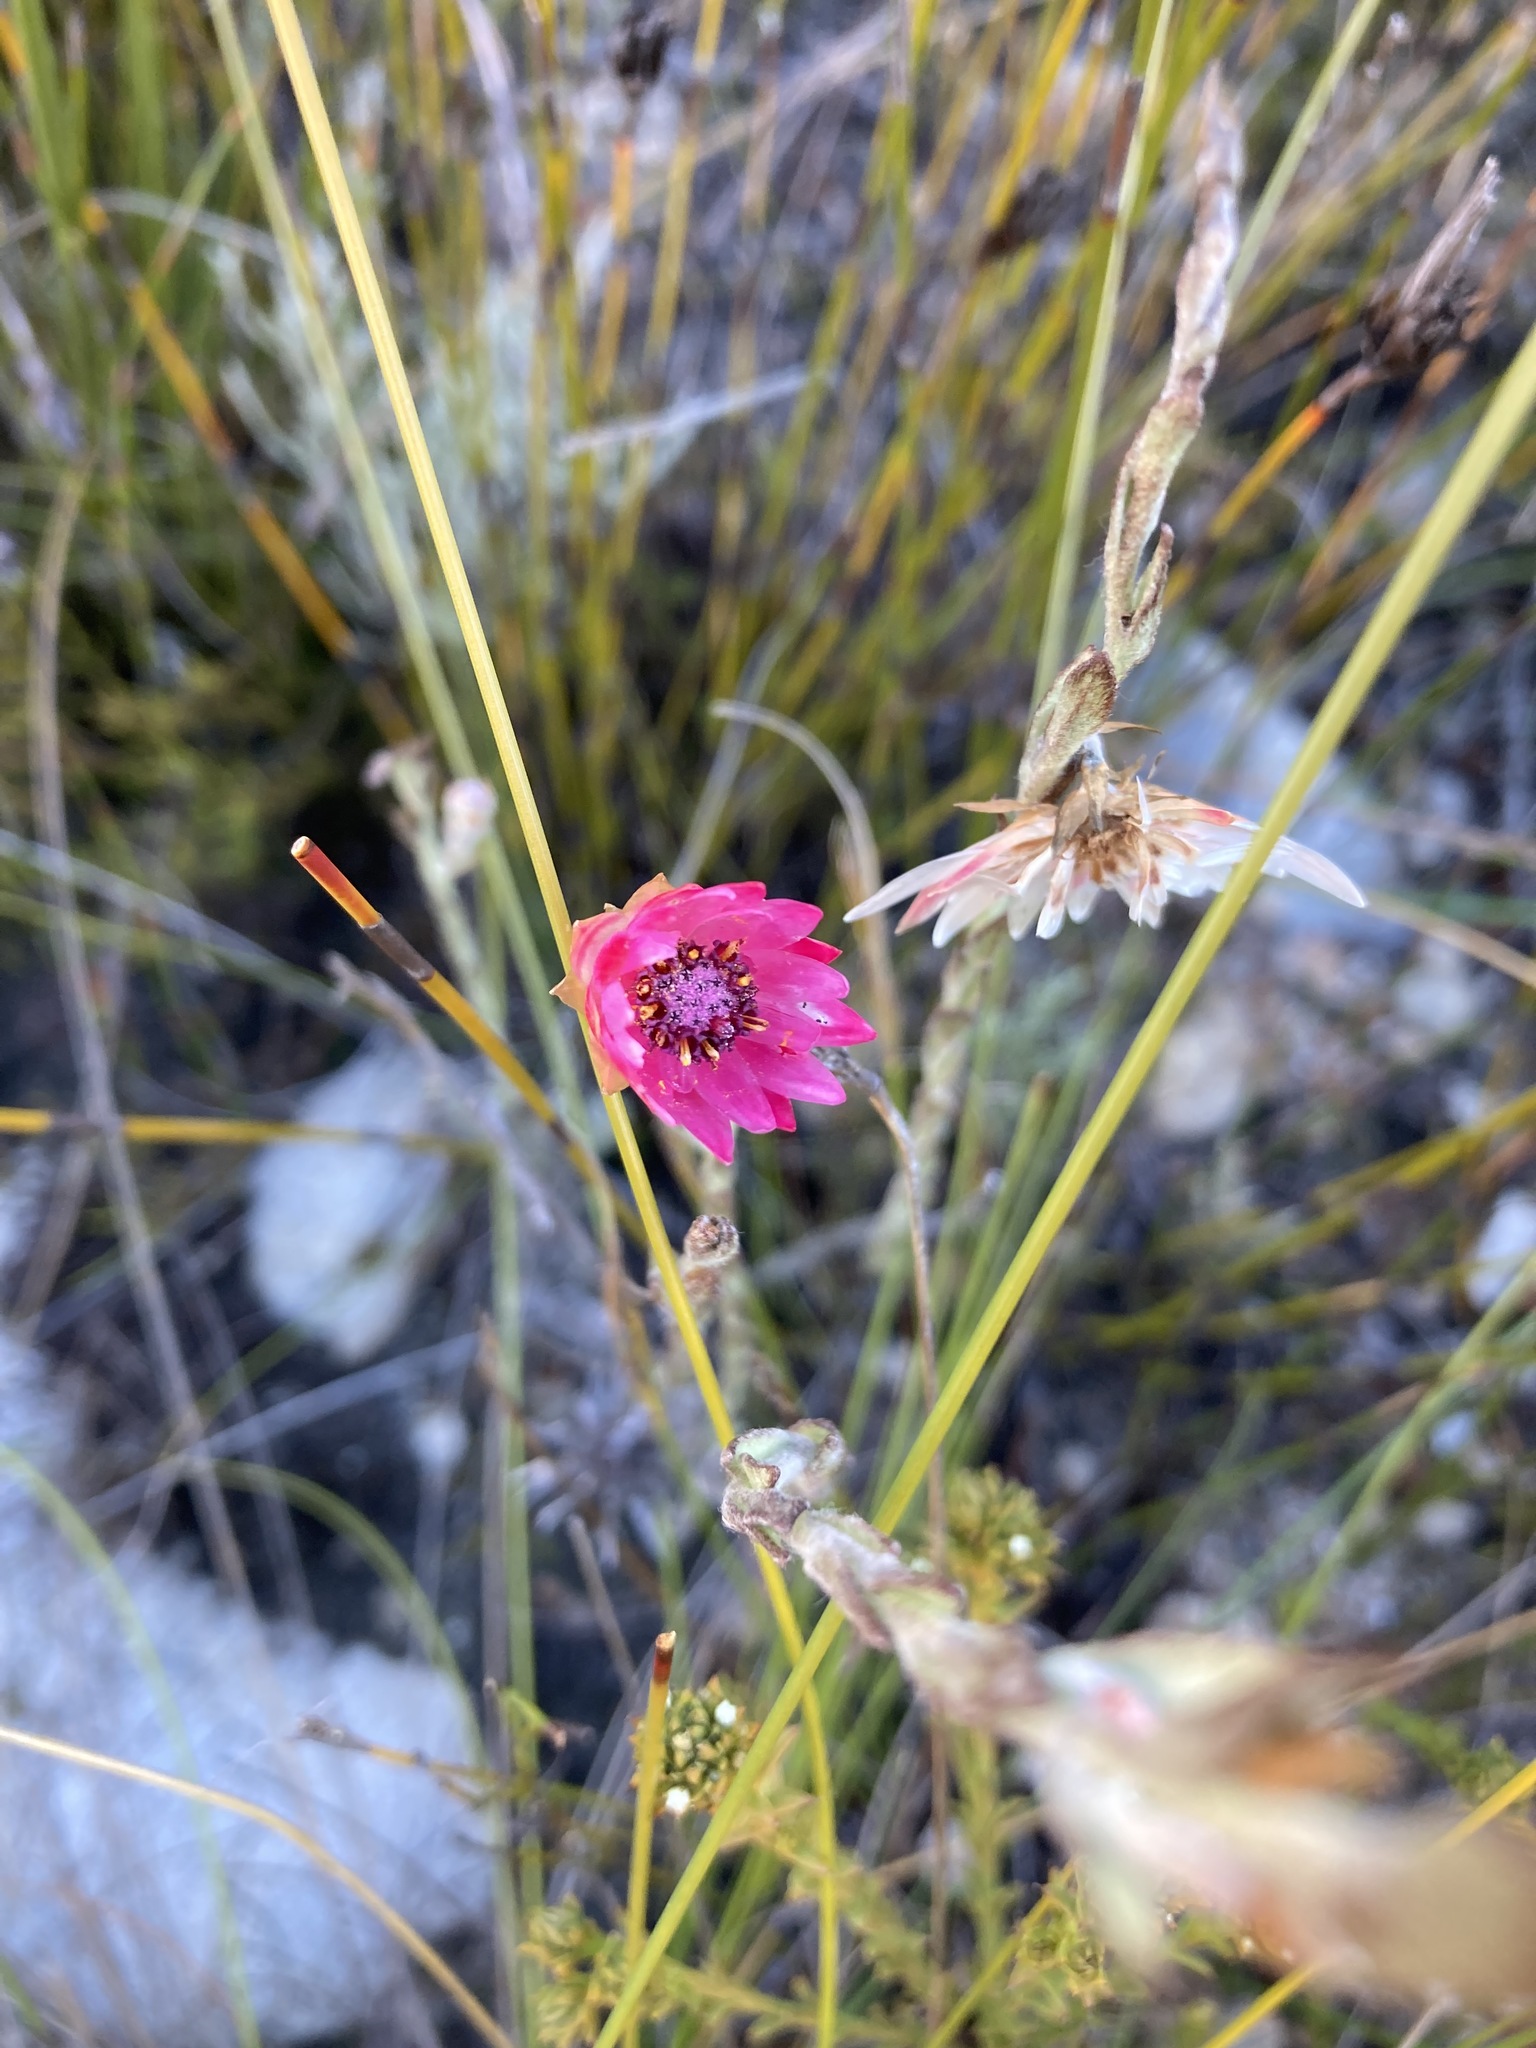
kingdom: Plantae
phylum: Tracheophyta
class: Magnoliopsida
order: Asterales
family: Asteraceae
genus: Syncarpha
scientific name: Syncarpha canescens
